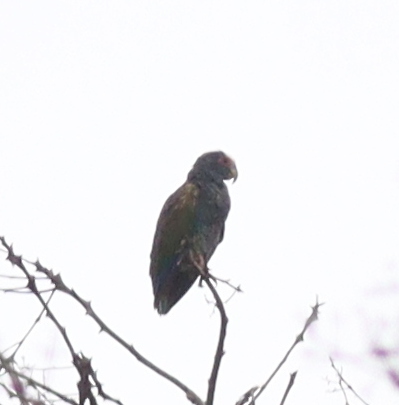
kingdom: Animalia
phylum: Chordata
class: Aves
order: Psittaciformes
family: Psittacidae
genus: Pionus
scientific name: Pionus senilis
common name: White-crowned parrot
